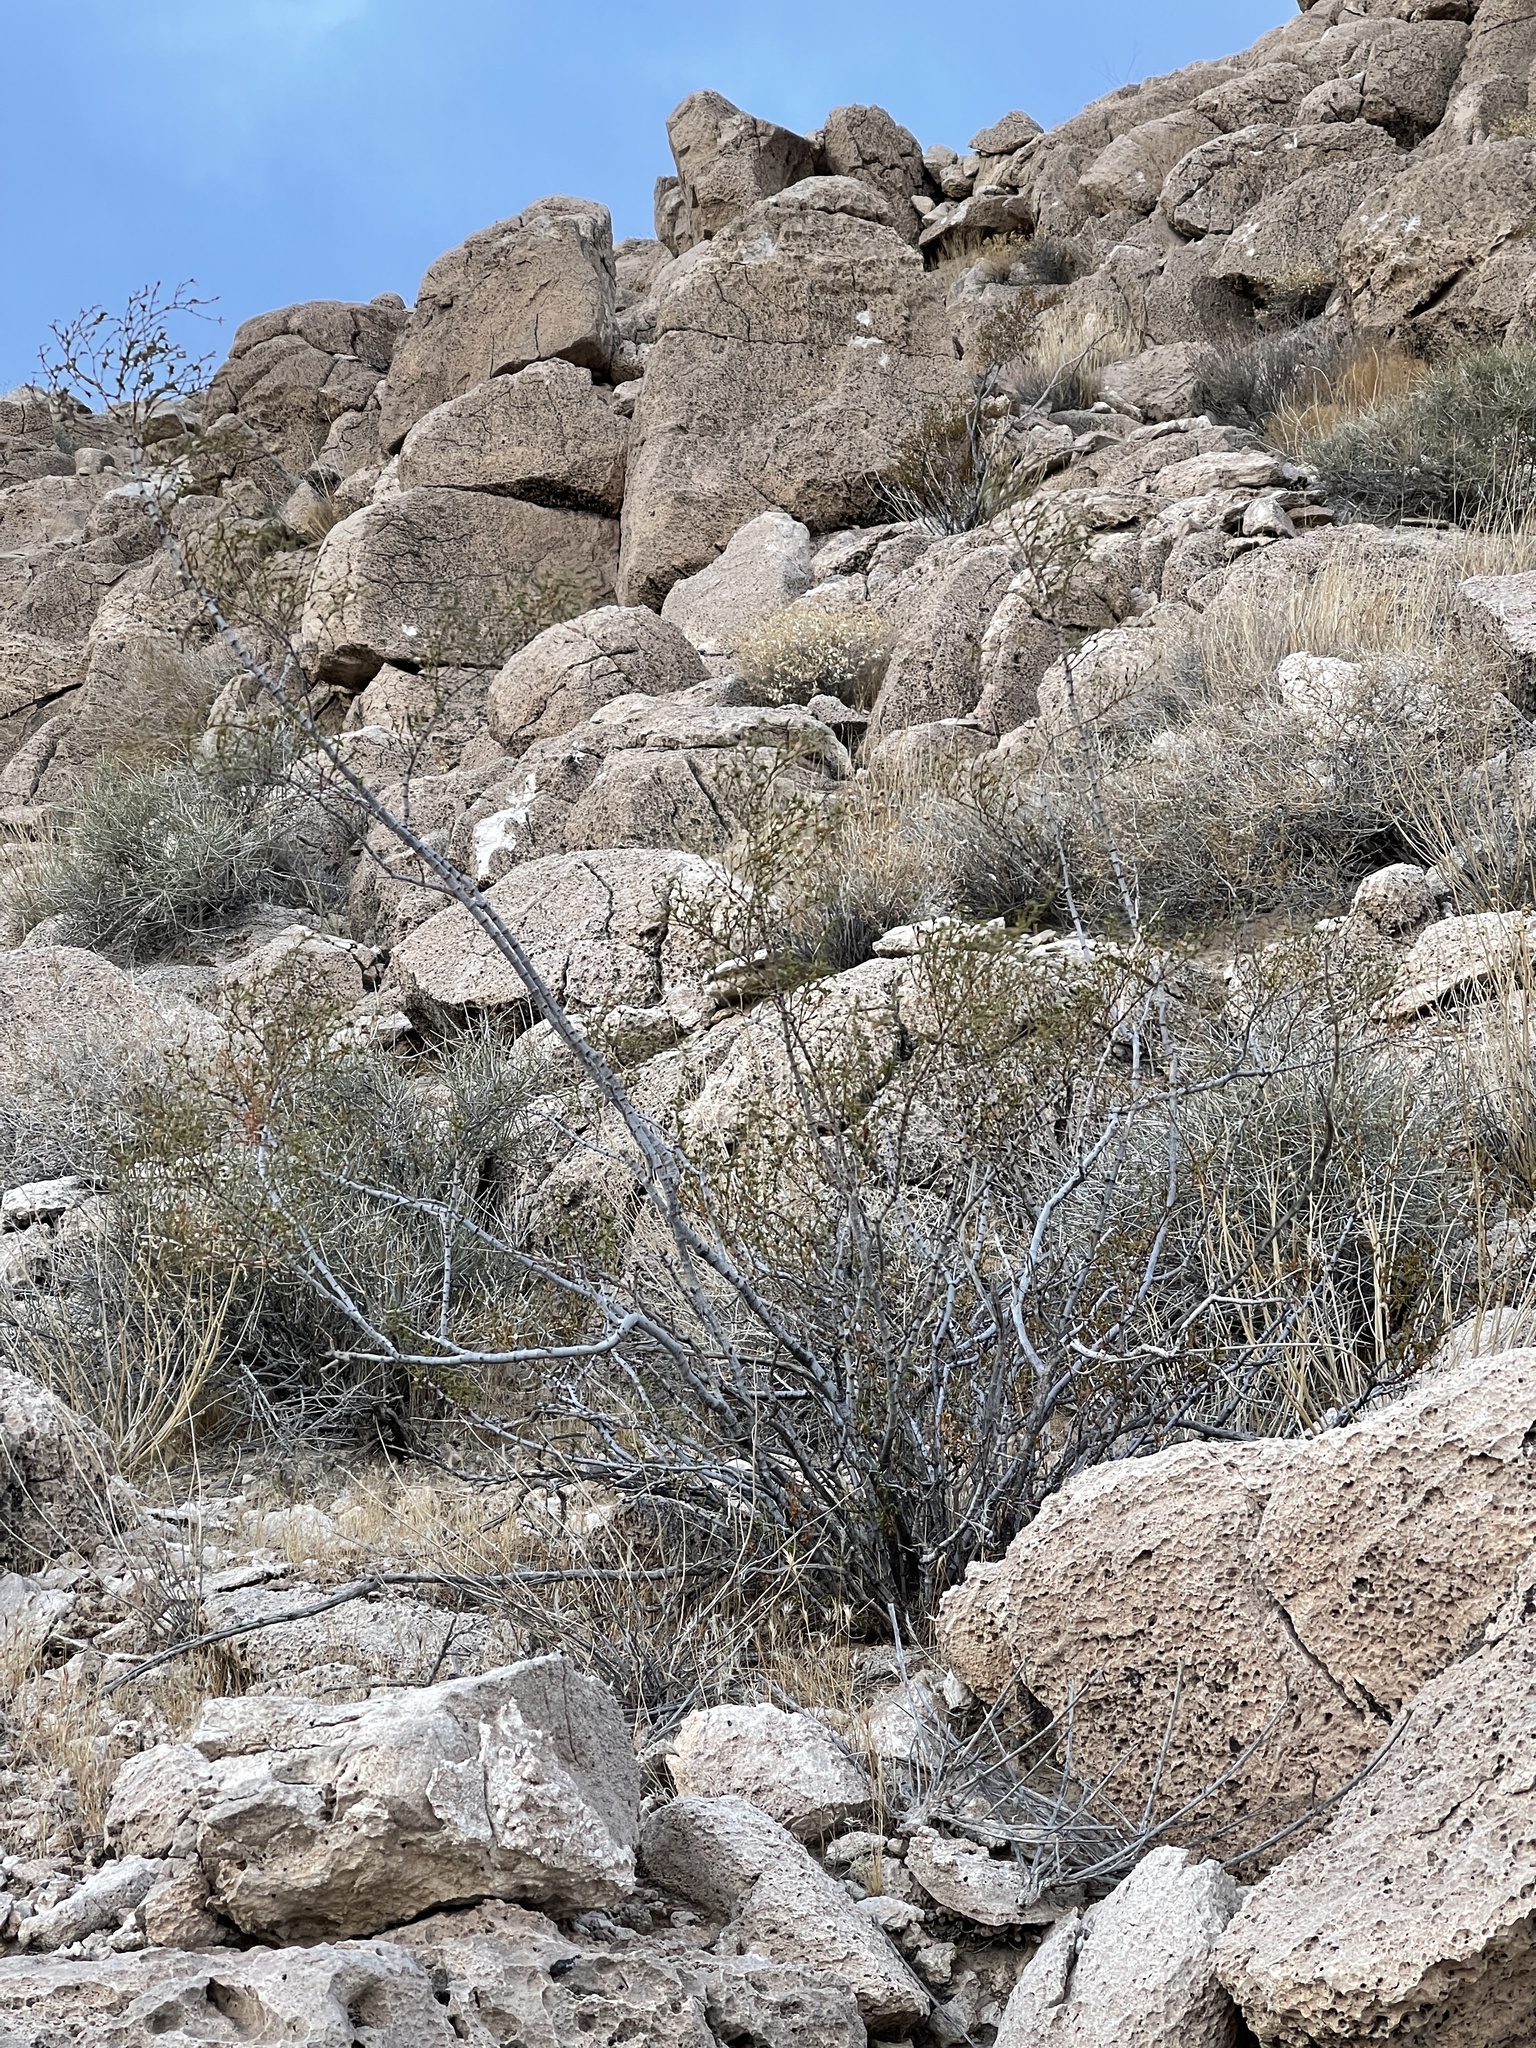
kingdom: Plantae
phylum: Tracheophyta
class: Magnoliopsida
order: Zygophyllales
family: Zygophyllaceae
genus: Larrea
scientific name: Larrea tridentata
